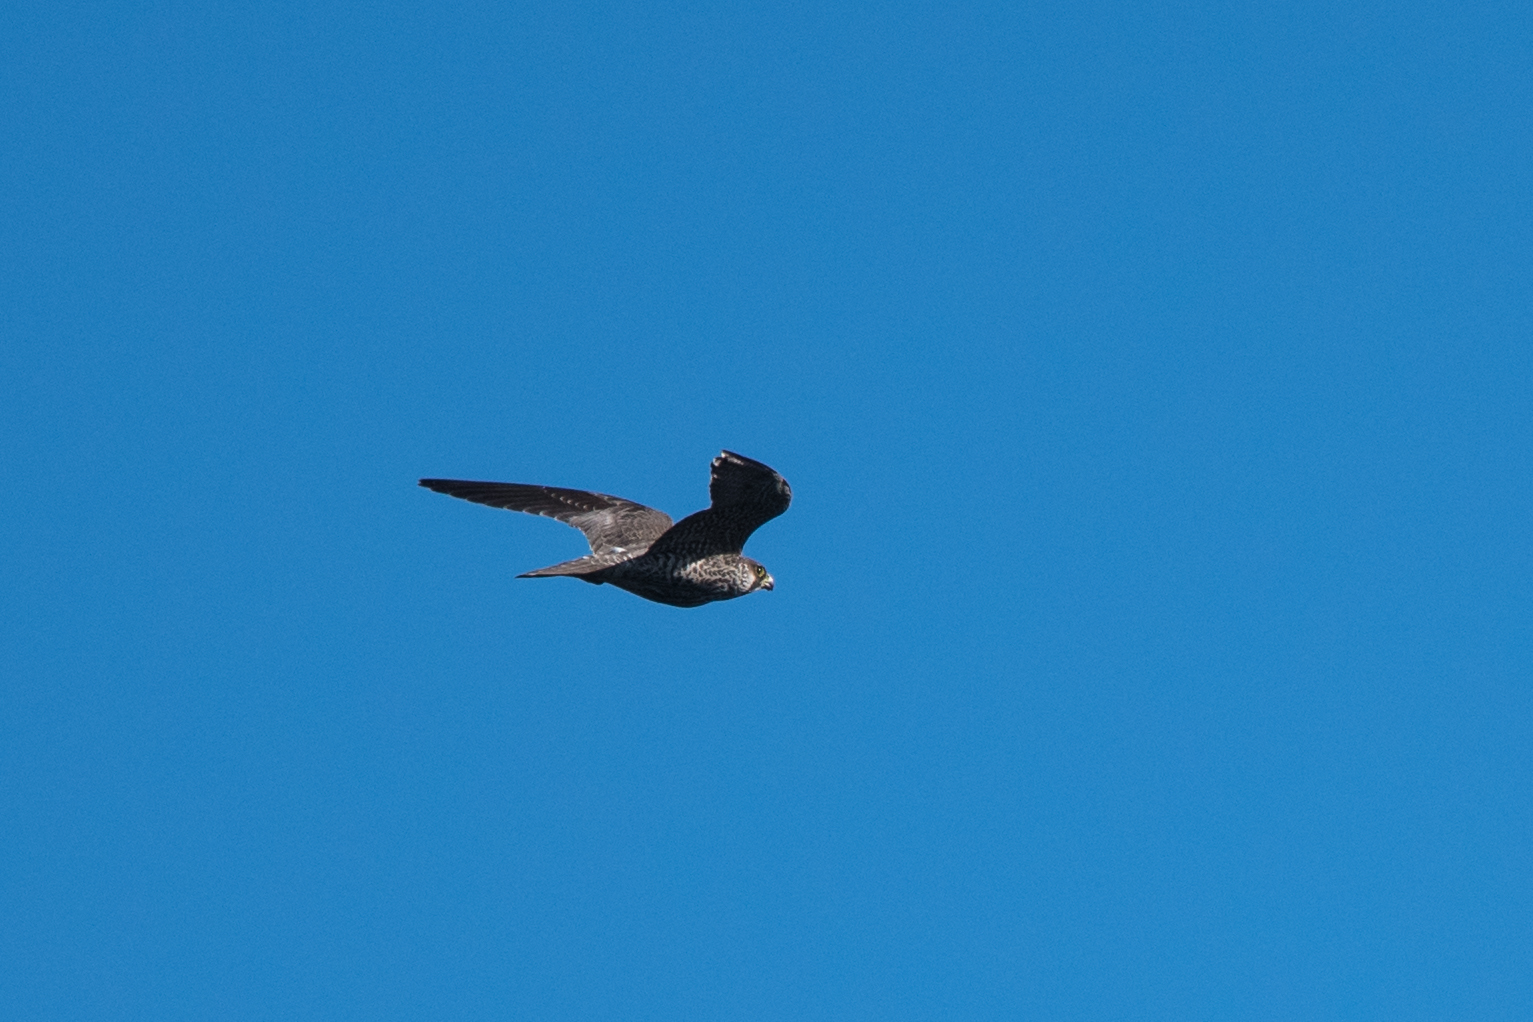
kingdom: Animalia
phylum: Chordata
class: Aves
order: Falconiformes
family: Falconidae
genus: Falco
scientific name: Falco peregrinus
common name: Peregrine falcon
